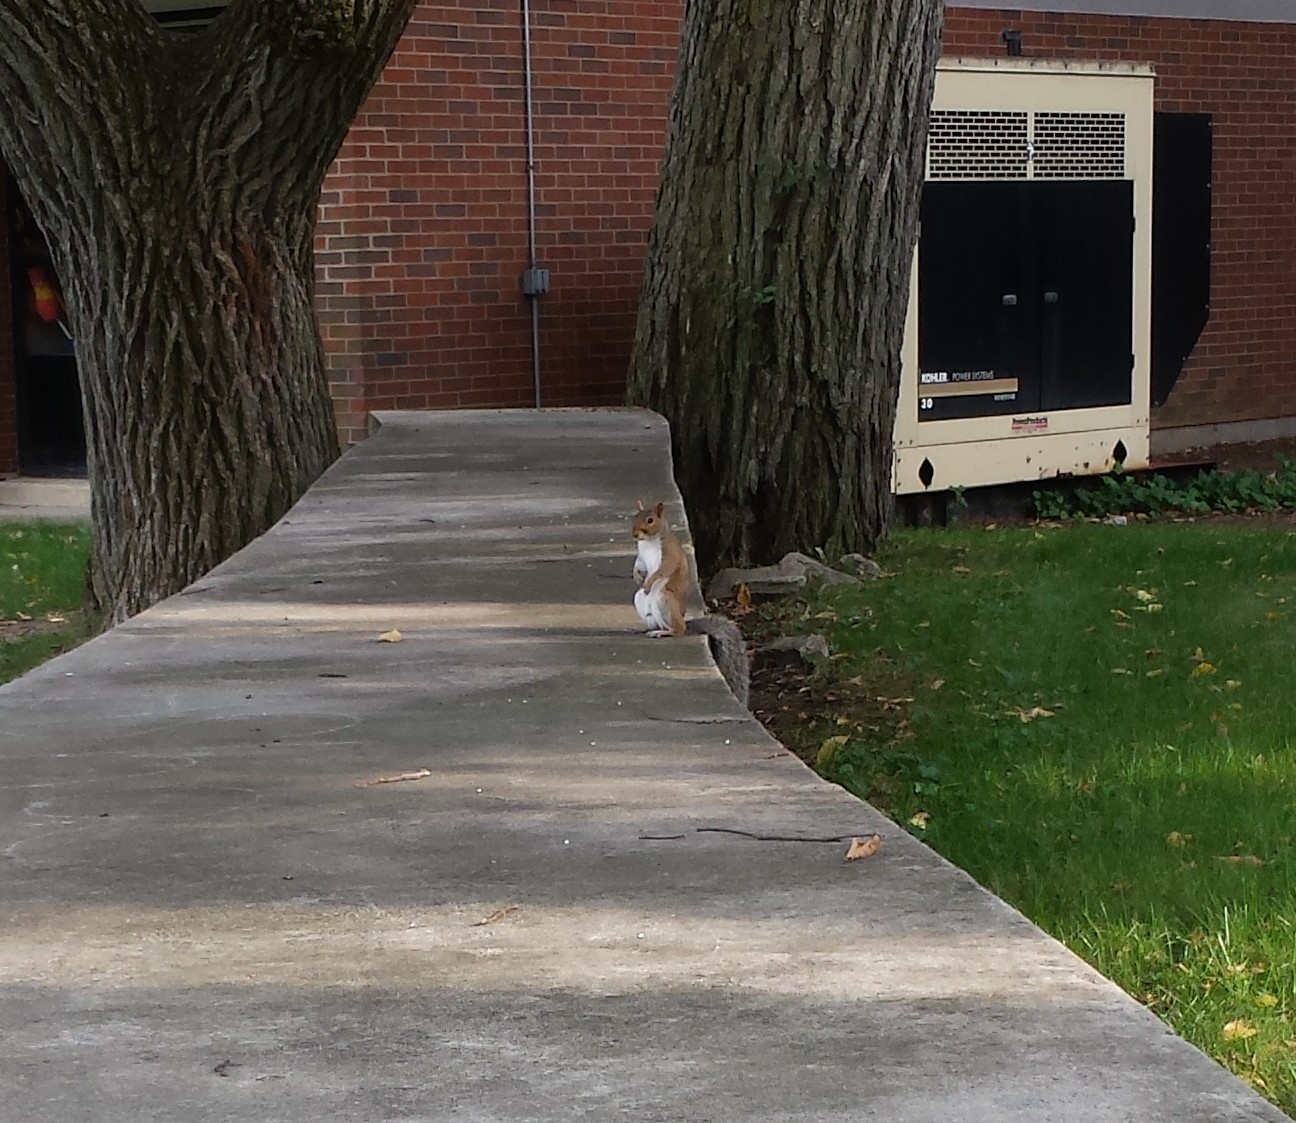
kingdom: Animalia
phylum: Chordata
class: Mammalia
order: Rodentia
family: Sciuridae
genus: Sciurus
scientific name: Sciurus carolinensis
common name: Eastern gray squirrel
